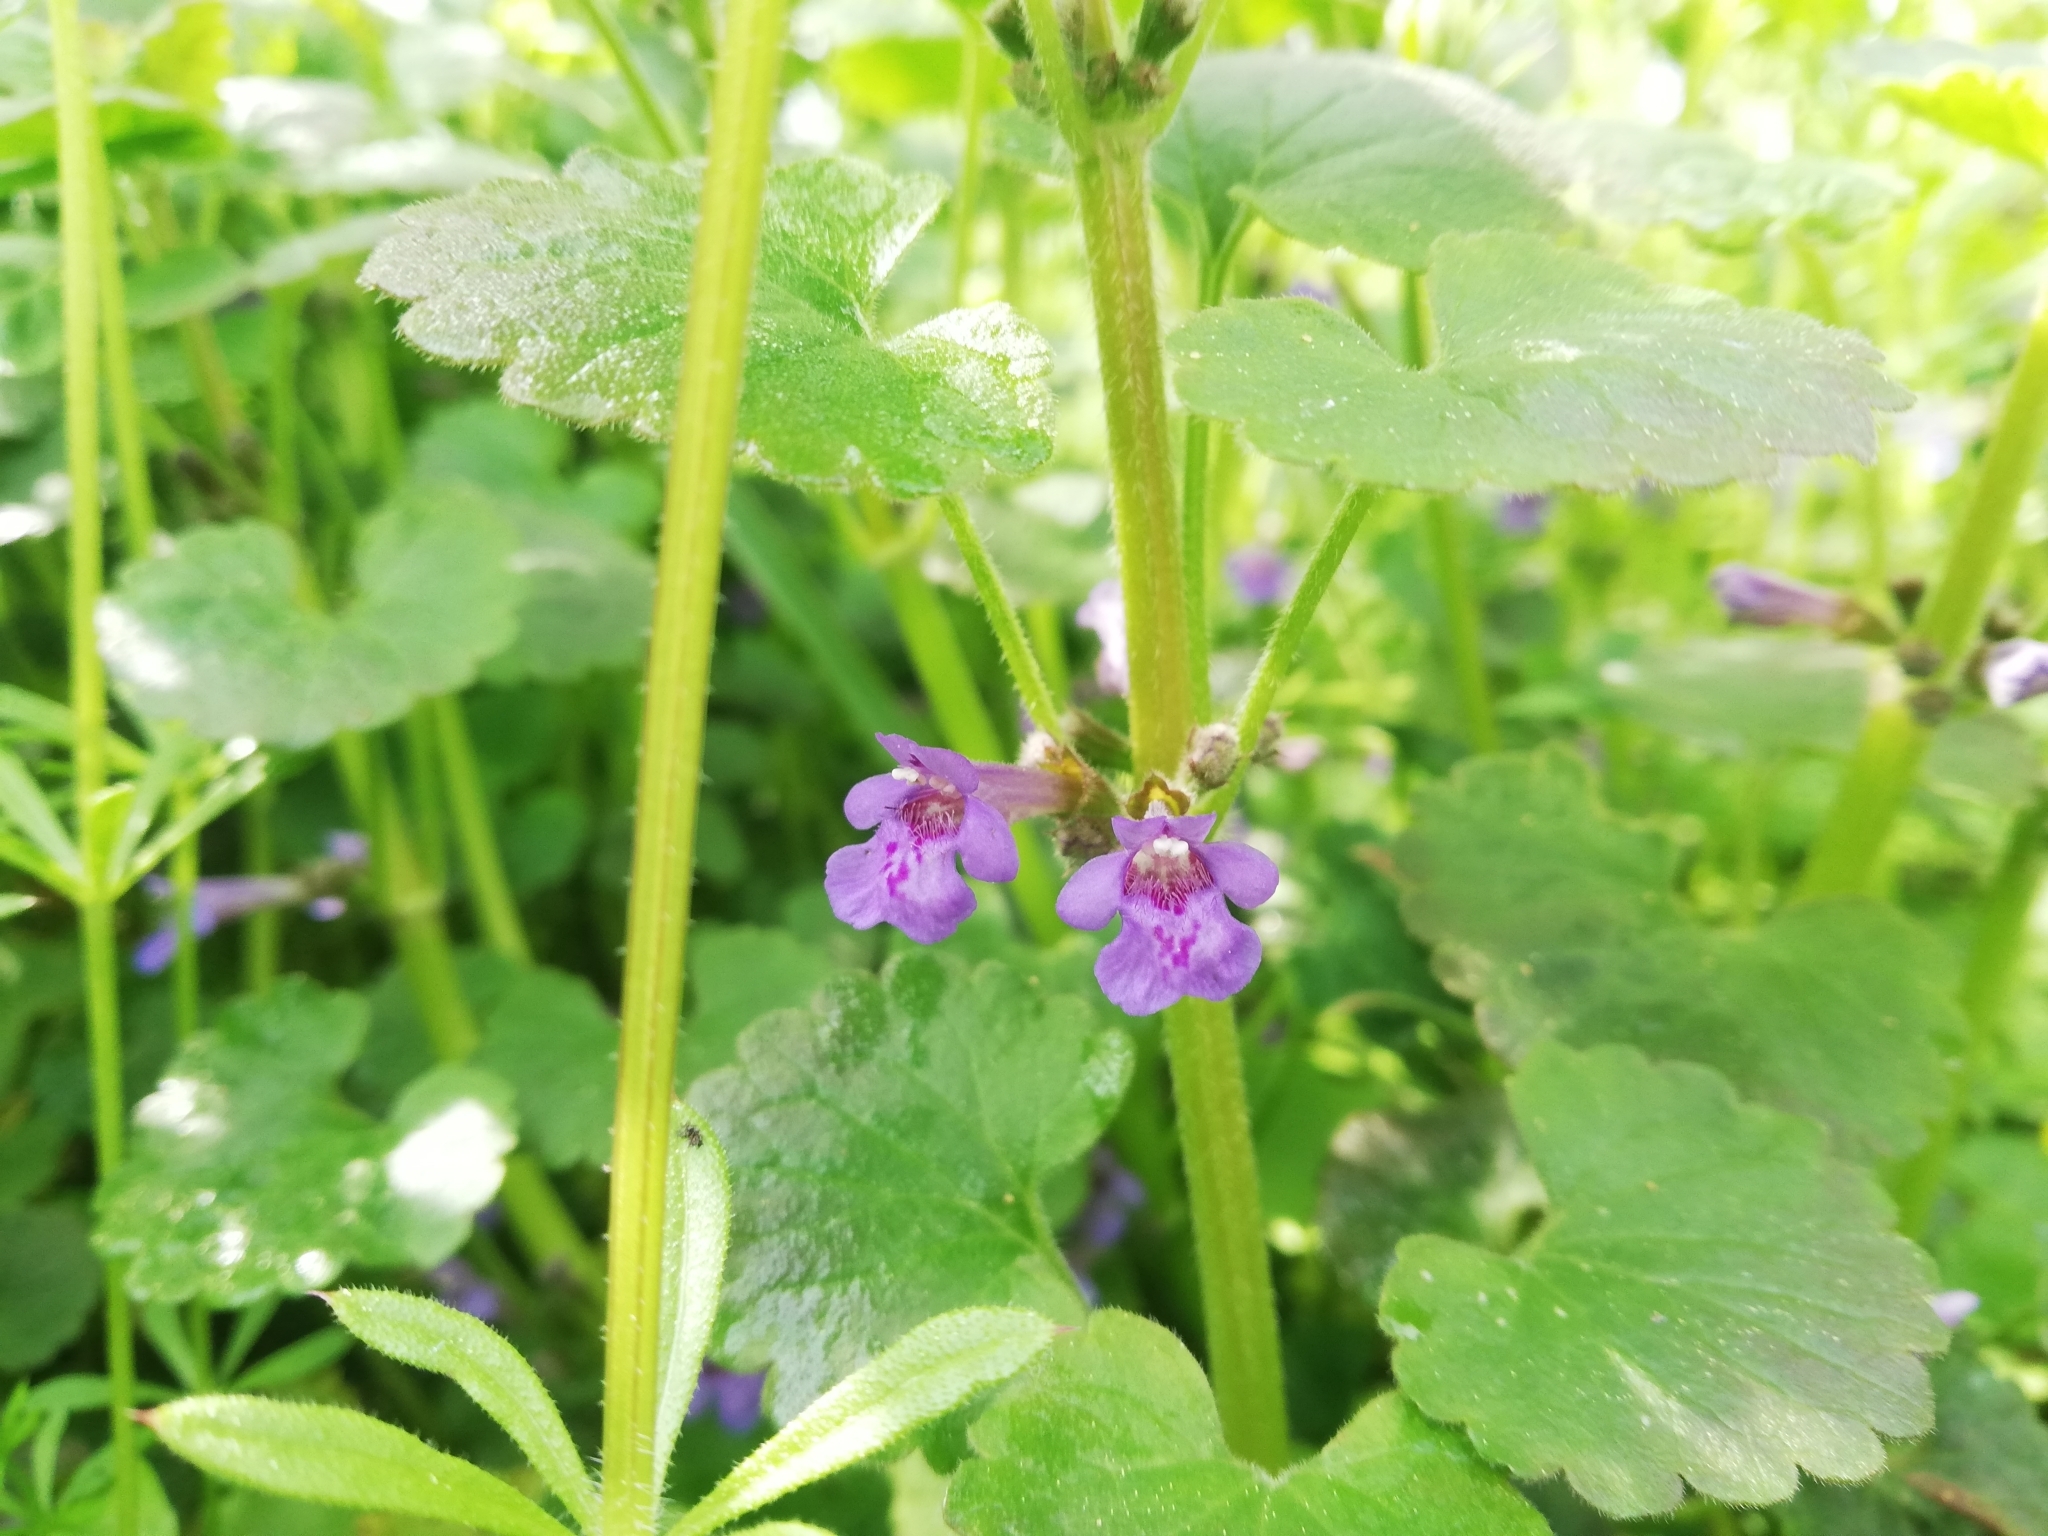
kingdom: Plantae
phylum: Tracheophyta
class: Magnoliopsida
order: Lamiales
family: Lamiaceae
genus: Glechoma
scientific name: Glechoma hederacea
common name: Ground ivy
